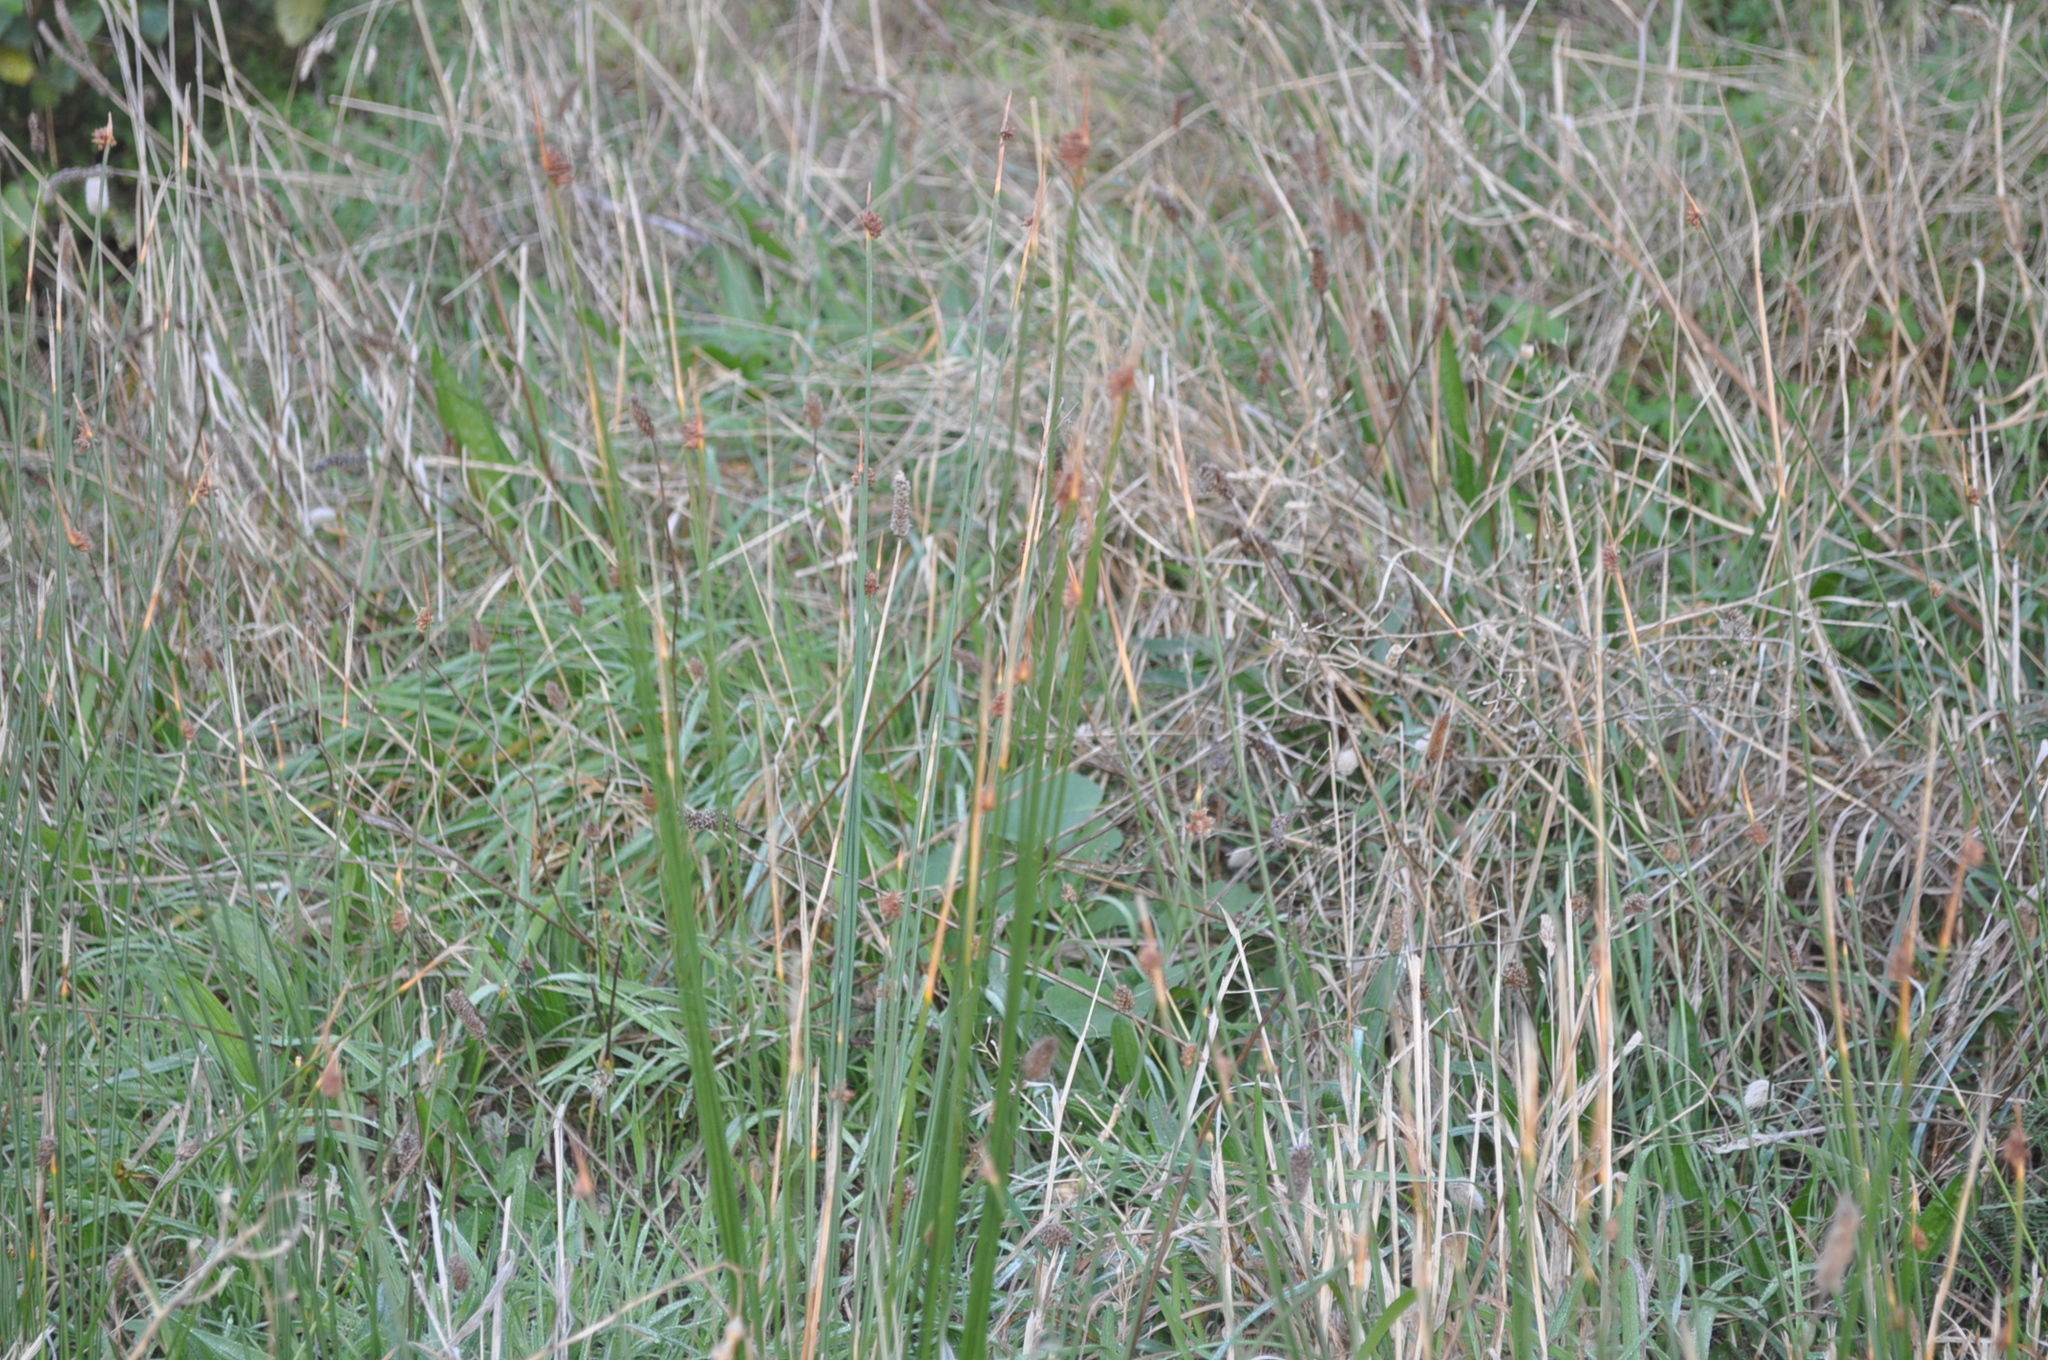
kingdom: Plantae
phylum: Tracheophyta
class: Liliopsida
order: Poales
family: Cyperaceae
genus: Ficinia
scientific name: Ficinia nodosa
